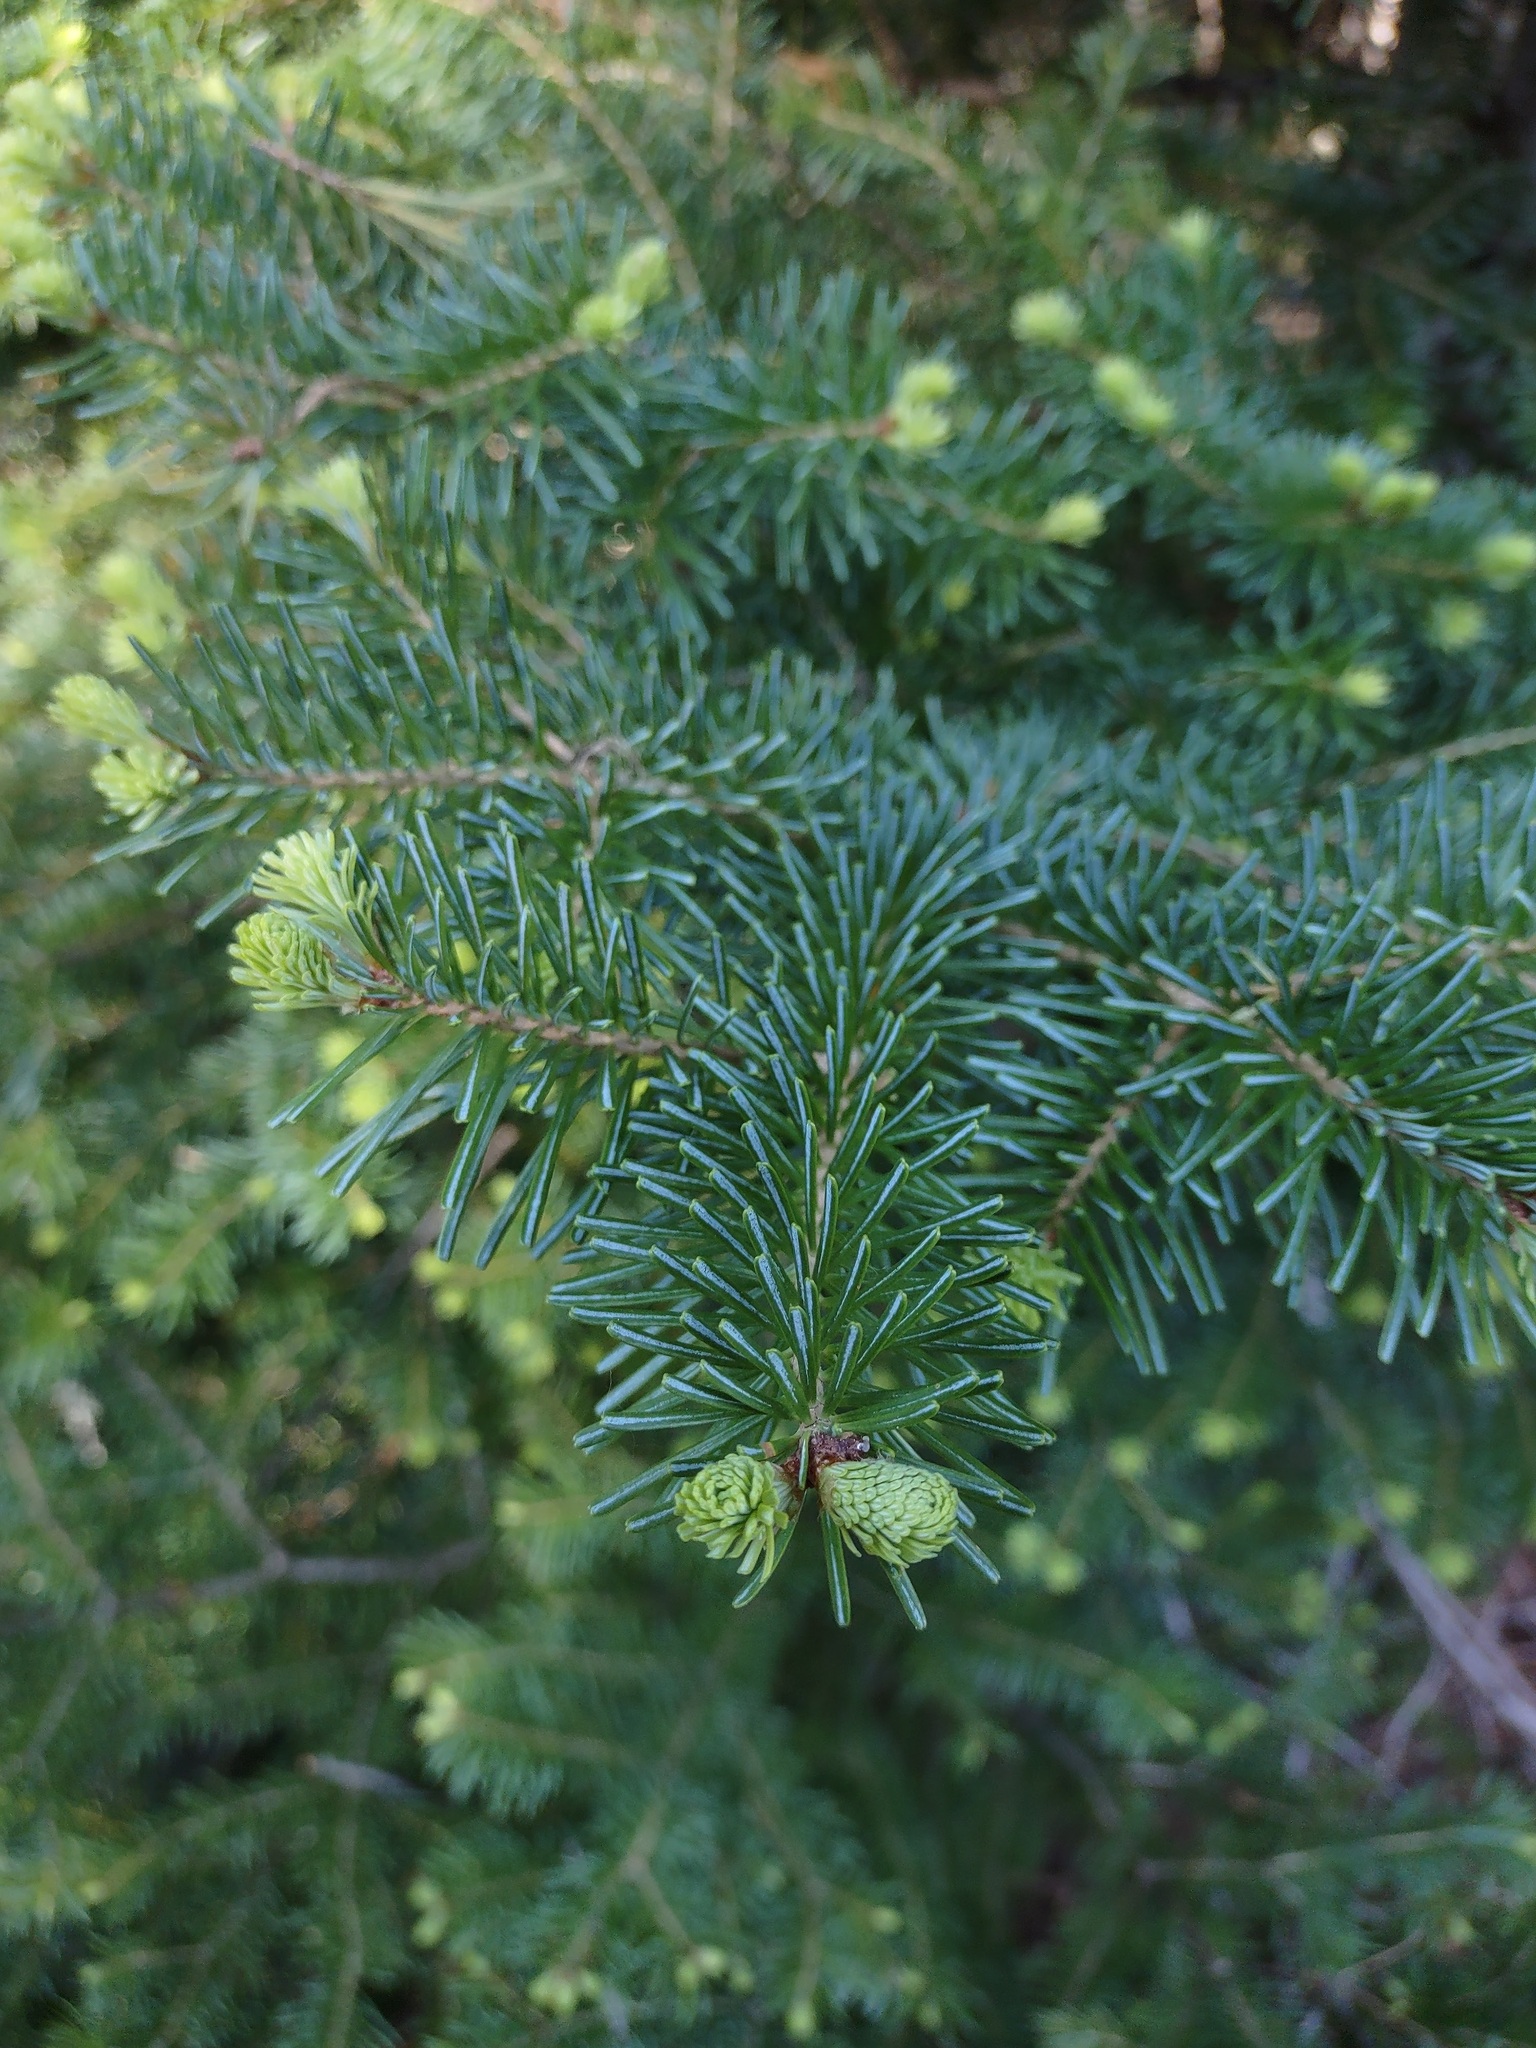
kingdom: Plantae
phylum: Tracheophyta
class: Pinopsida
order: Pinales
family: Pinaceae
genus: Abies
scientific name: Abies lasiocarpa
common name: Subalpine fir
